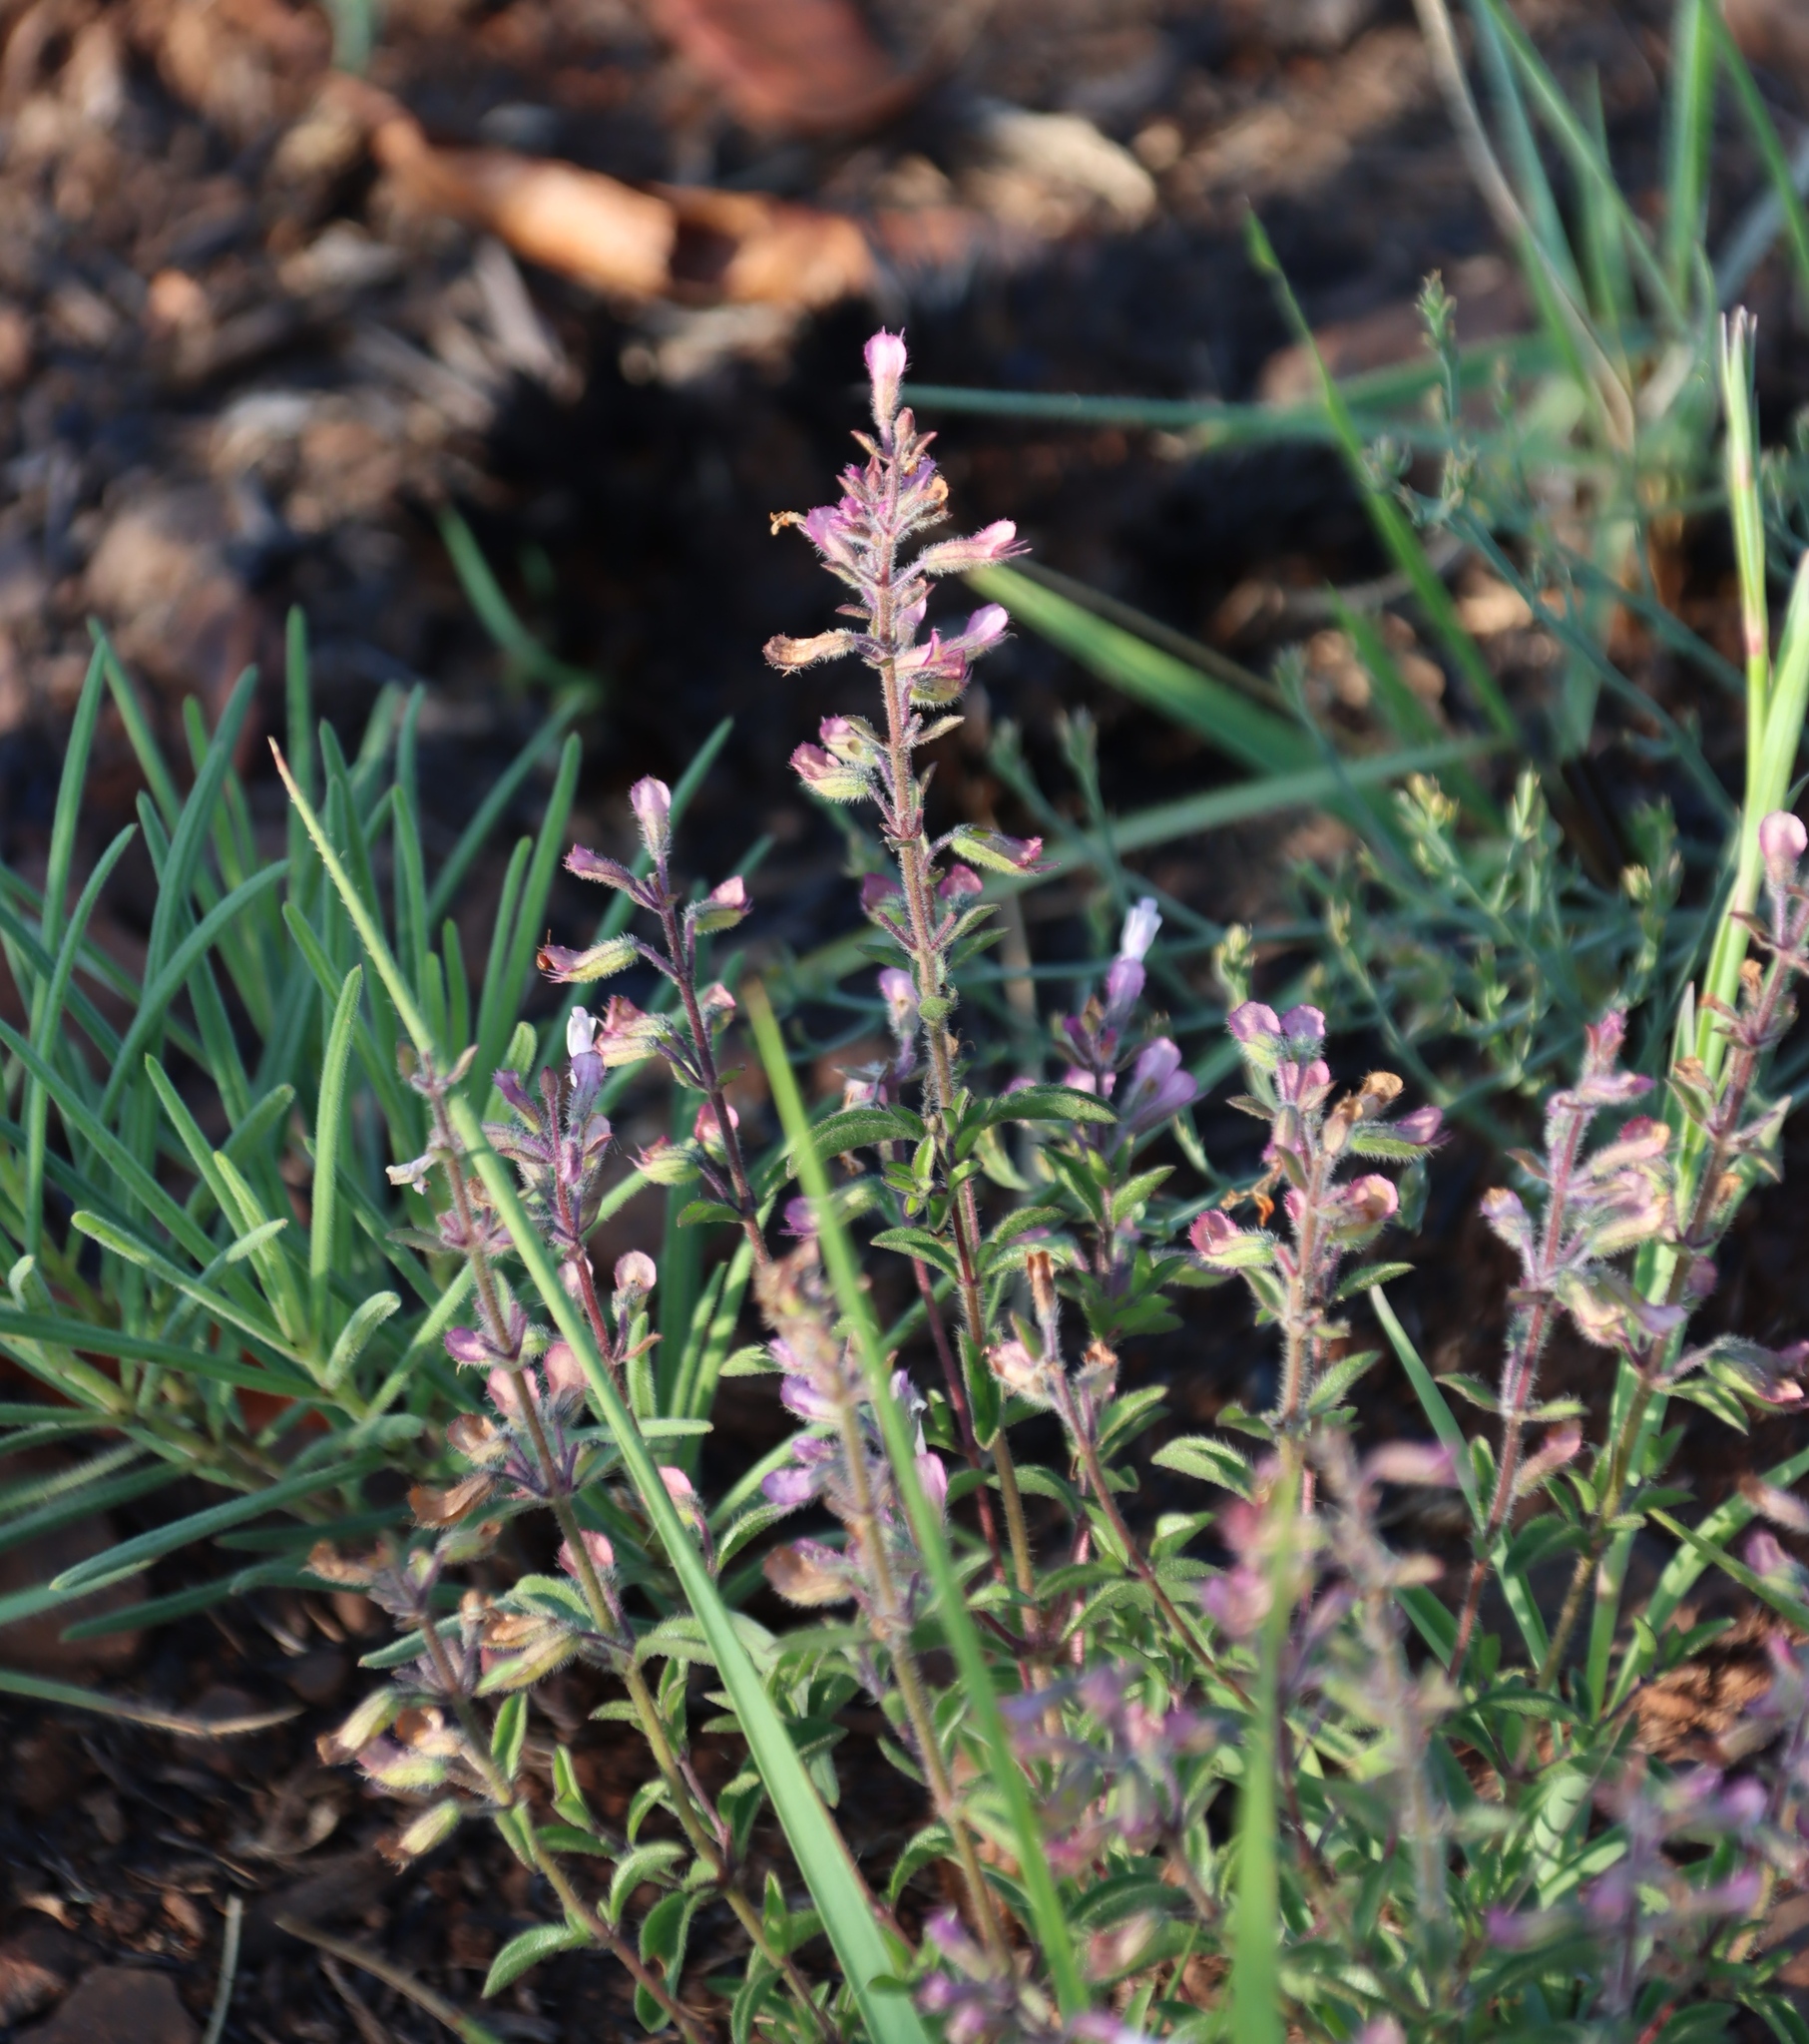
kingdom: Plantae
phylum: Tracheophyta
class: Magnoliopsida
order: Lamiales
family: Lamiaceae
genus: Syncolostemon
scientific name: Syncolostemon pretoriae
